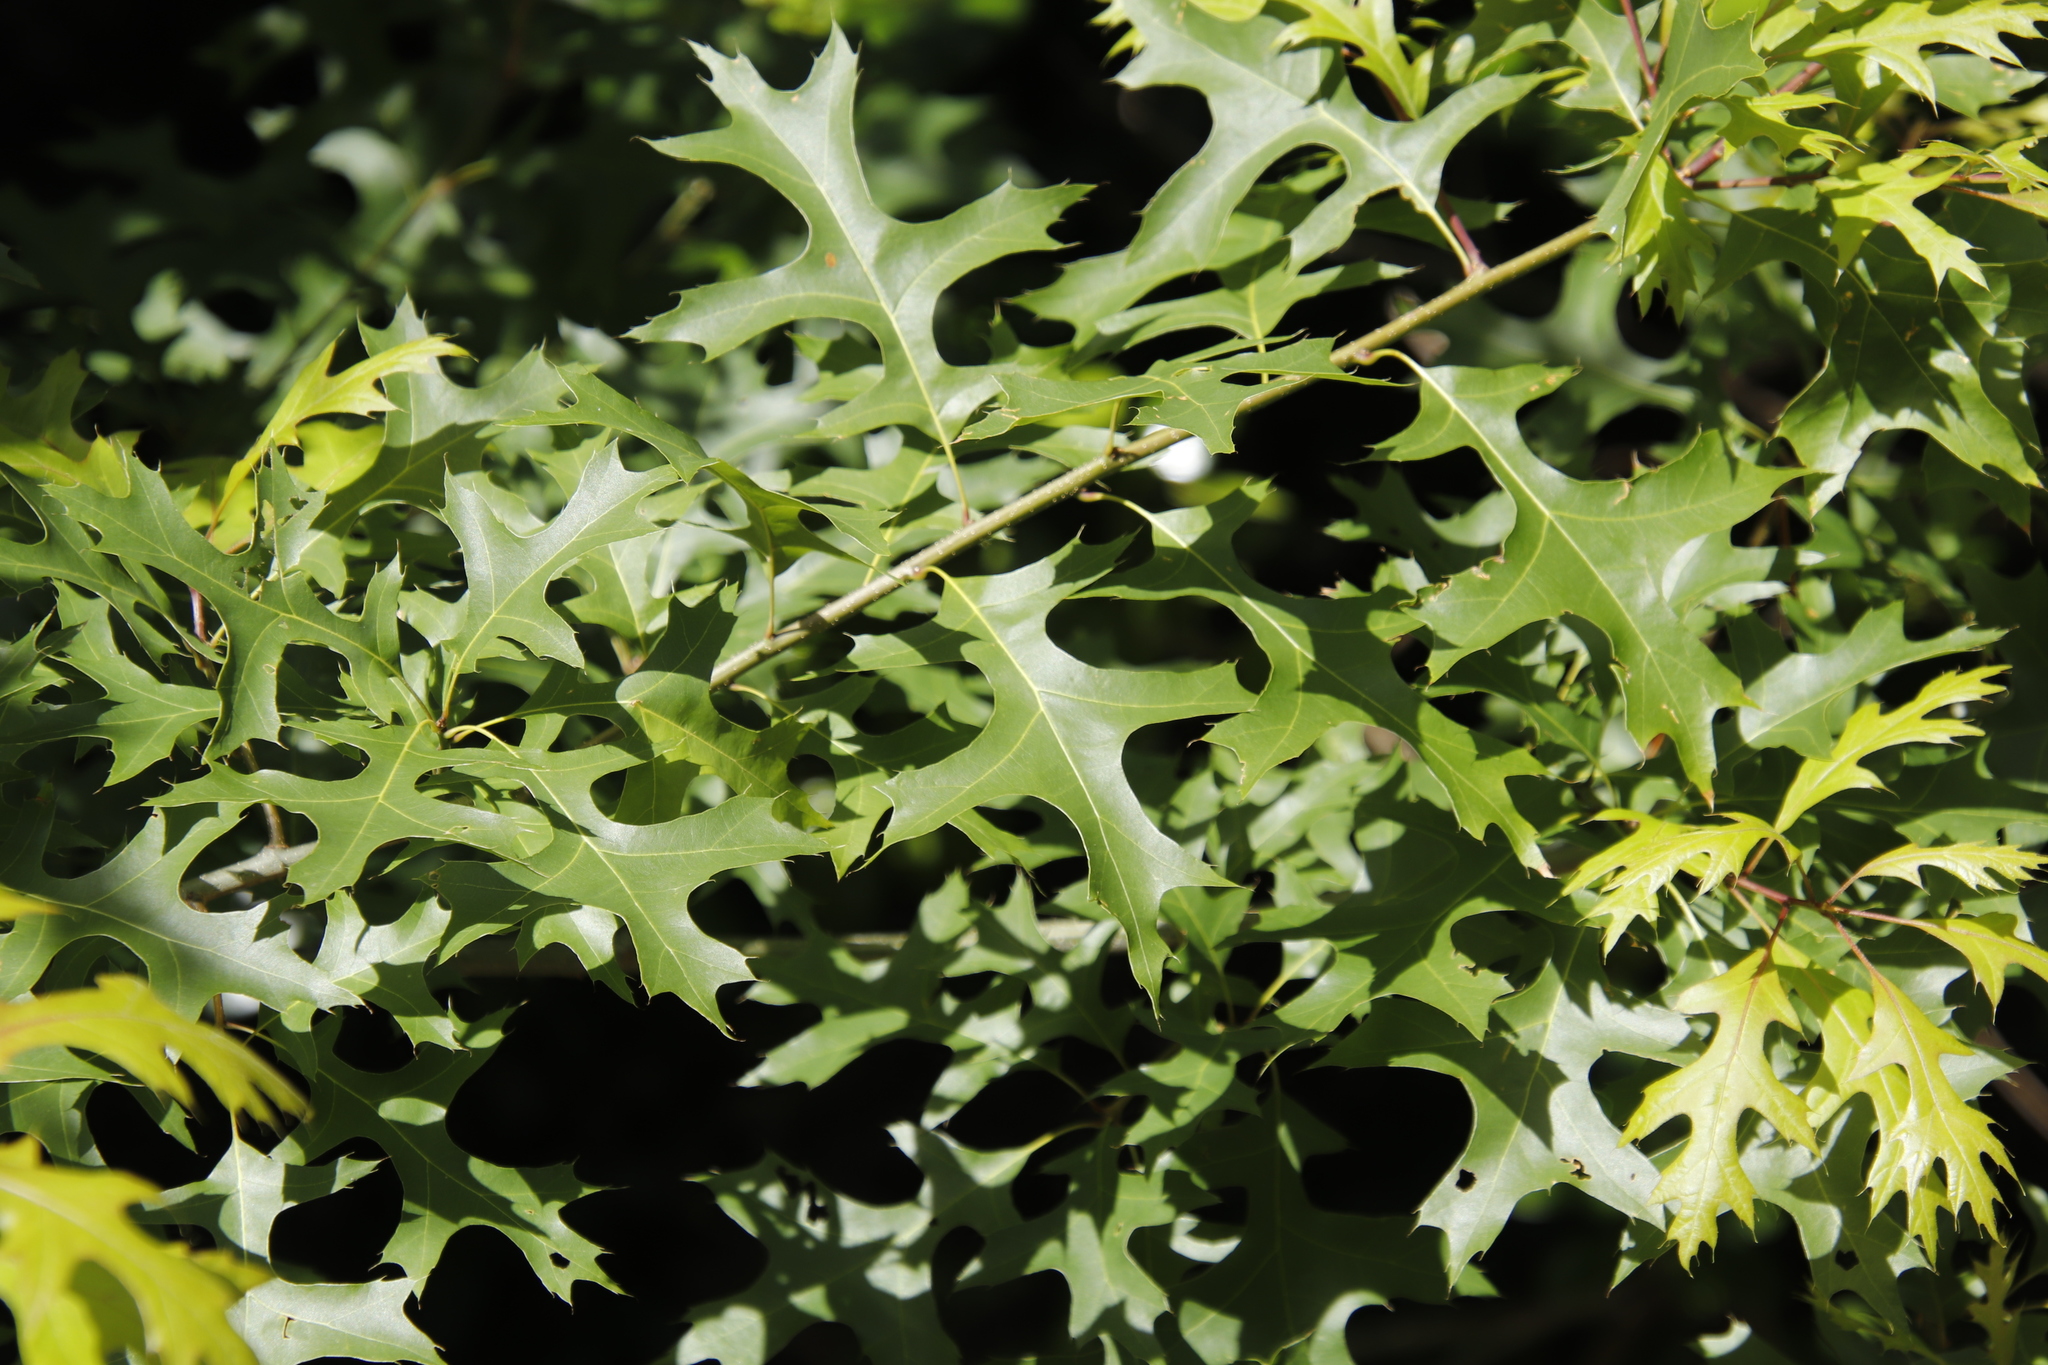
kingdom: Plantae
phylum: Tracheophyta
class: Magnoliopsida
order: Fagales
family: Fagaceae
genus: Quercus
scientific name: Quercus palustris
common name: Pin oak
